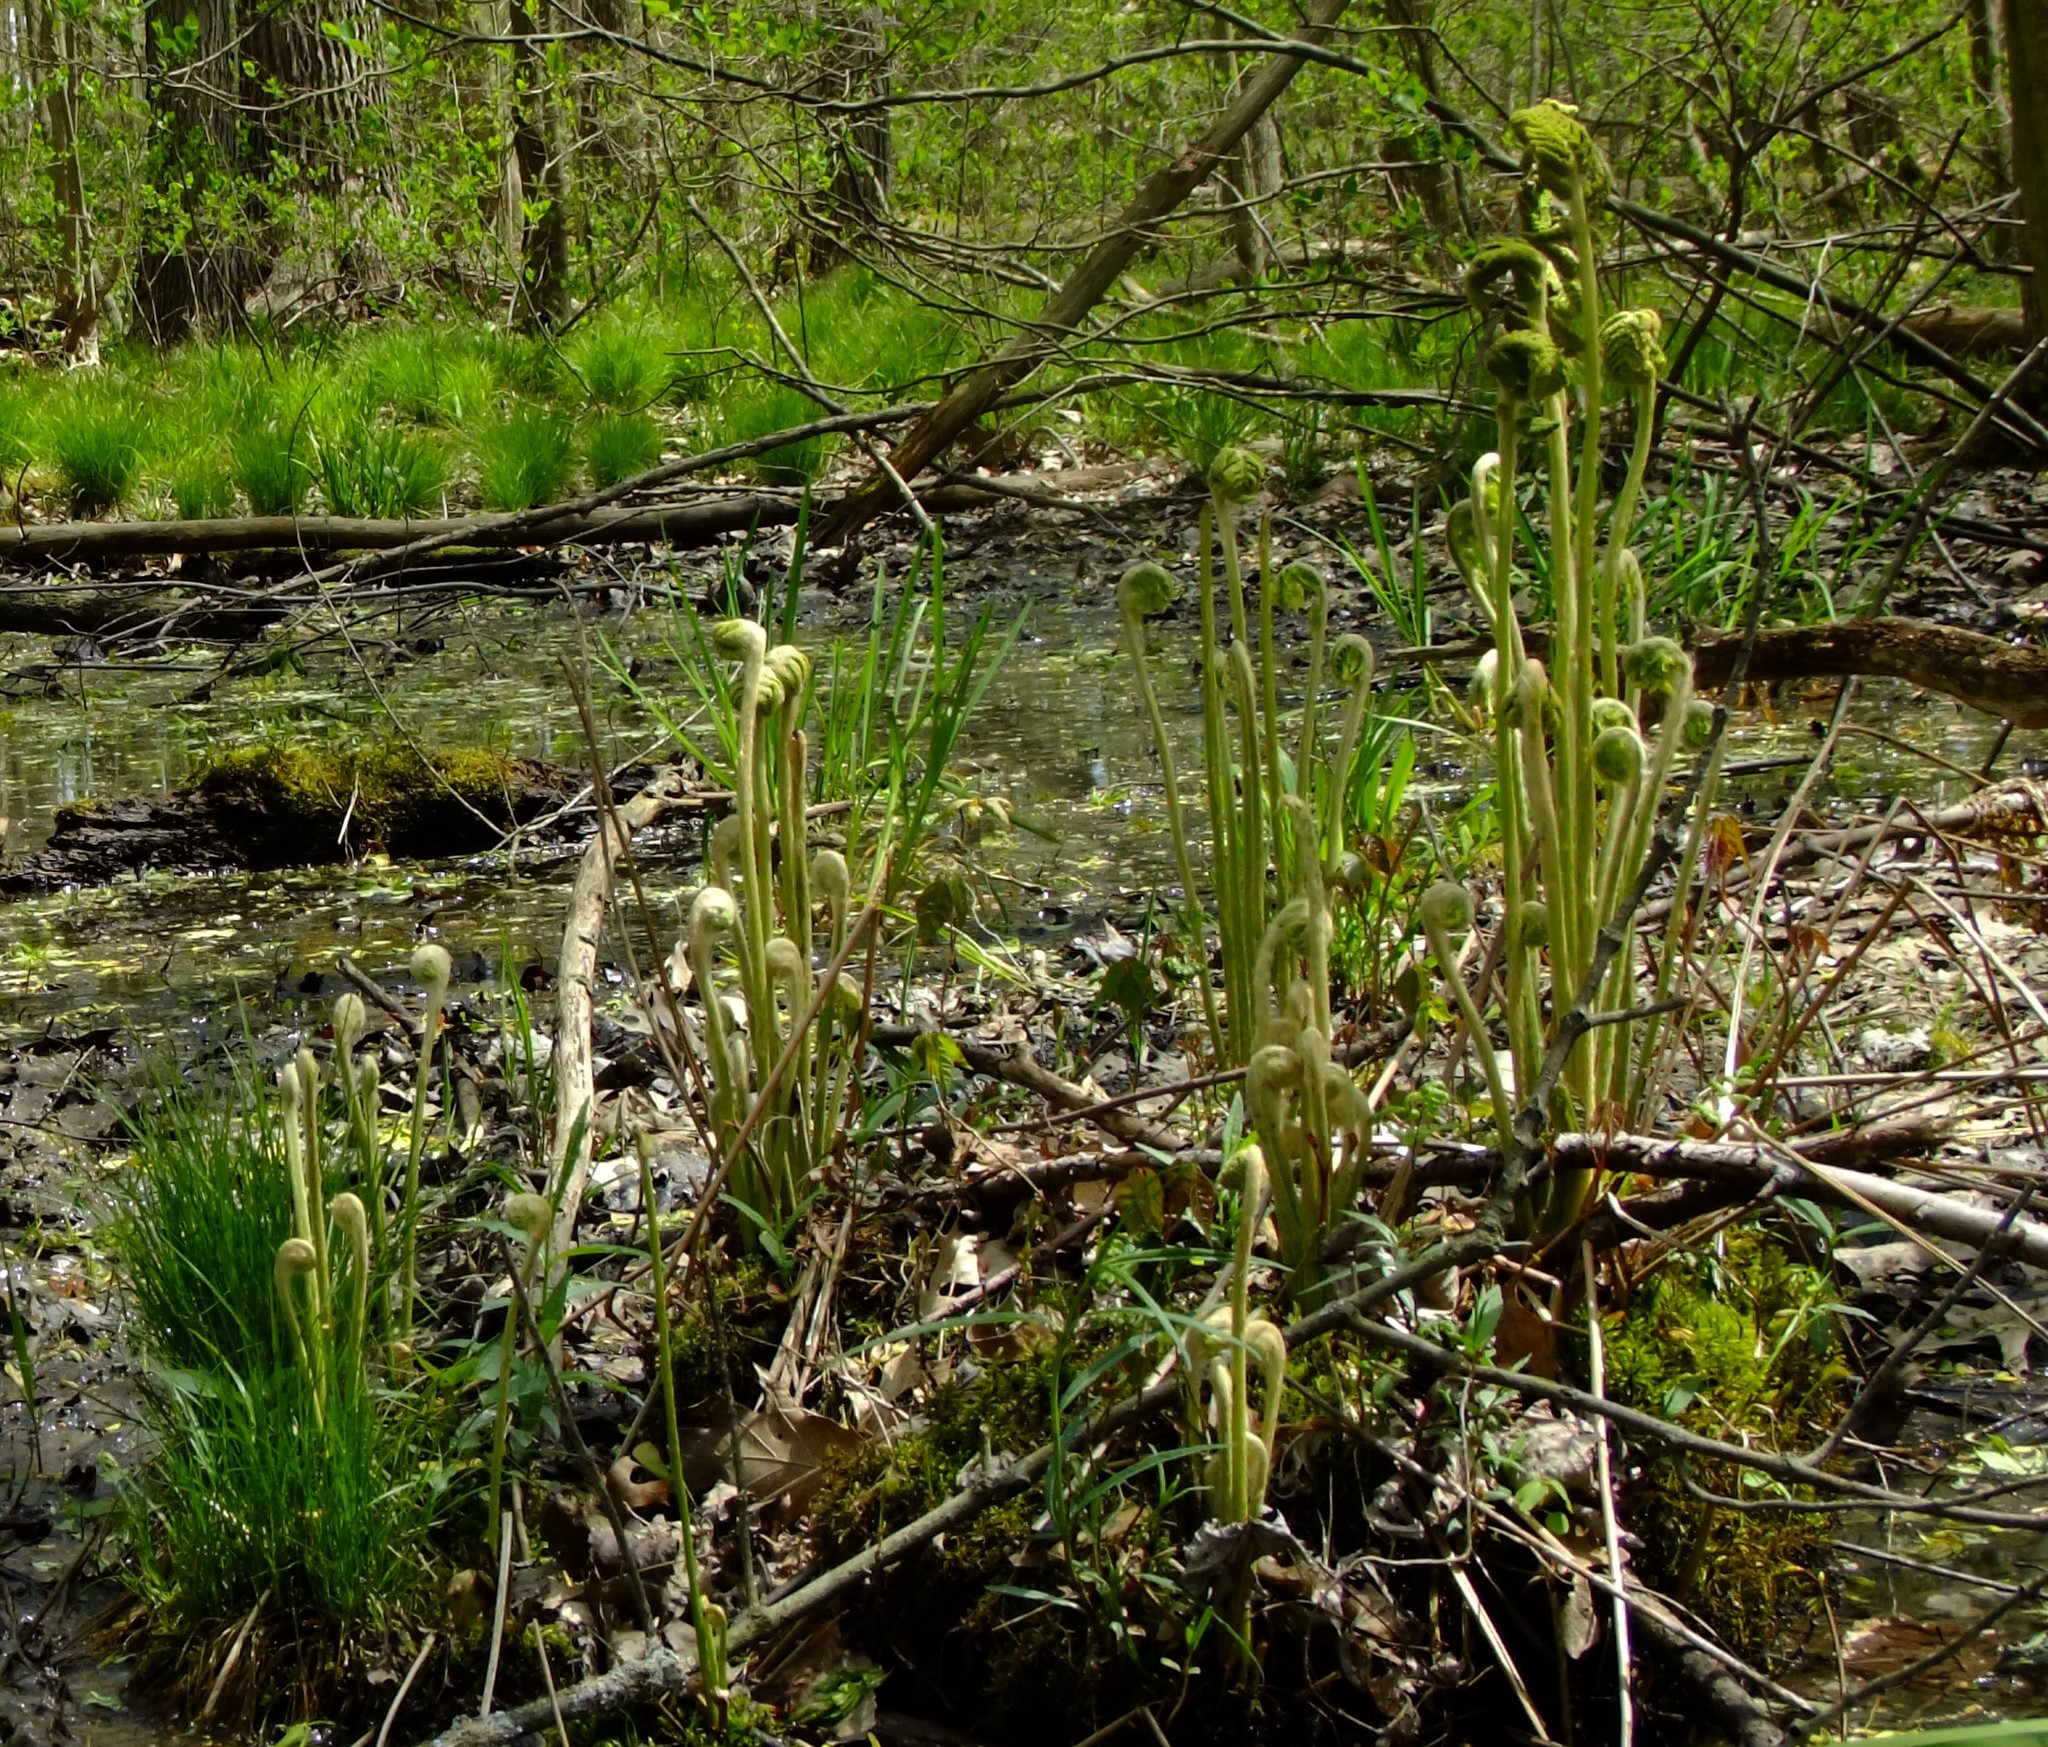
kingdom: Plantae
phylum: Tracheophyta
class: Polypodiopsida
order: Osmundales
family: Osmundaceae
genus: Osmundastrum
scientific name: Osmundastrum cinnamomeum
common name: Cinnamon fern
